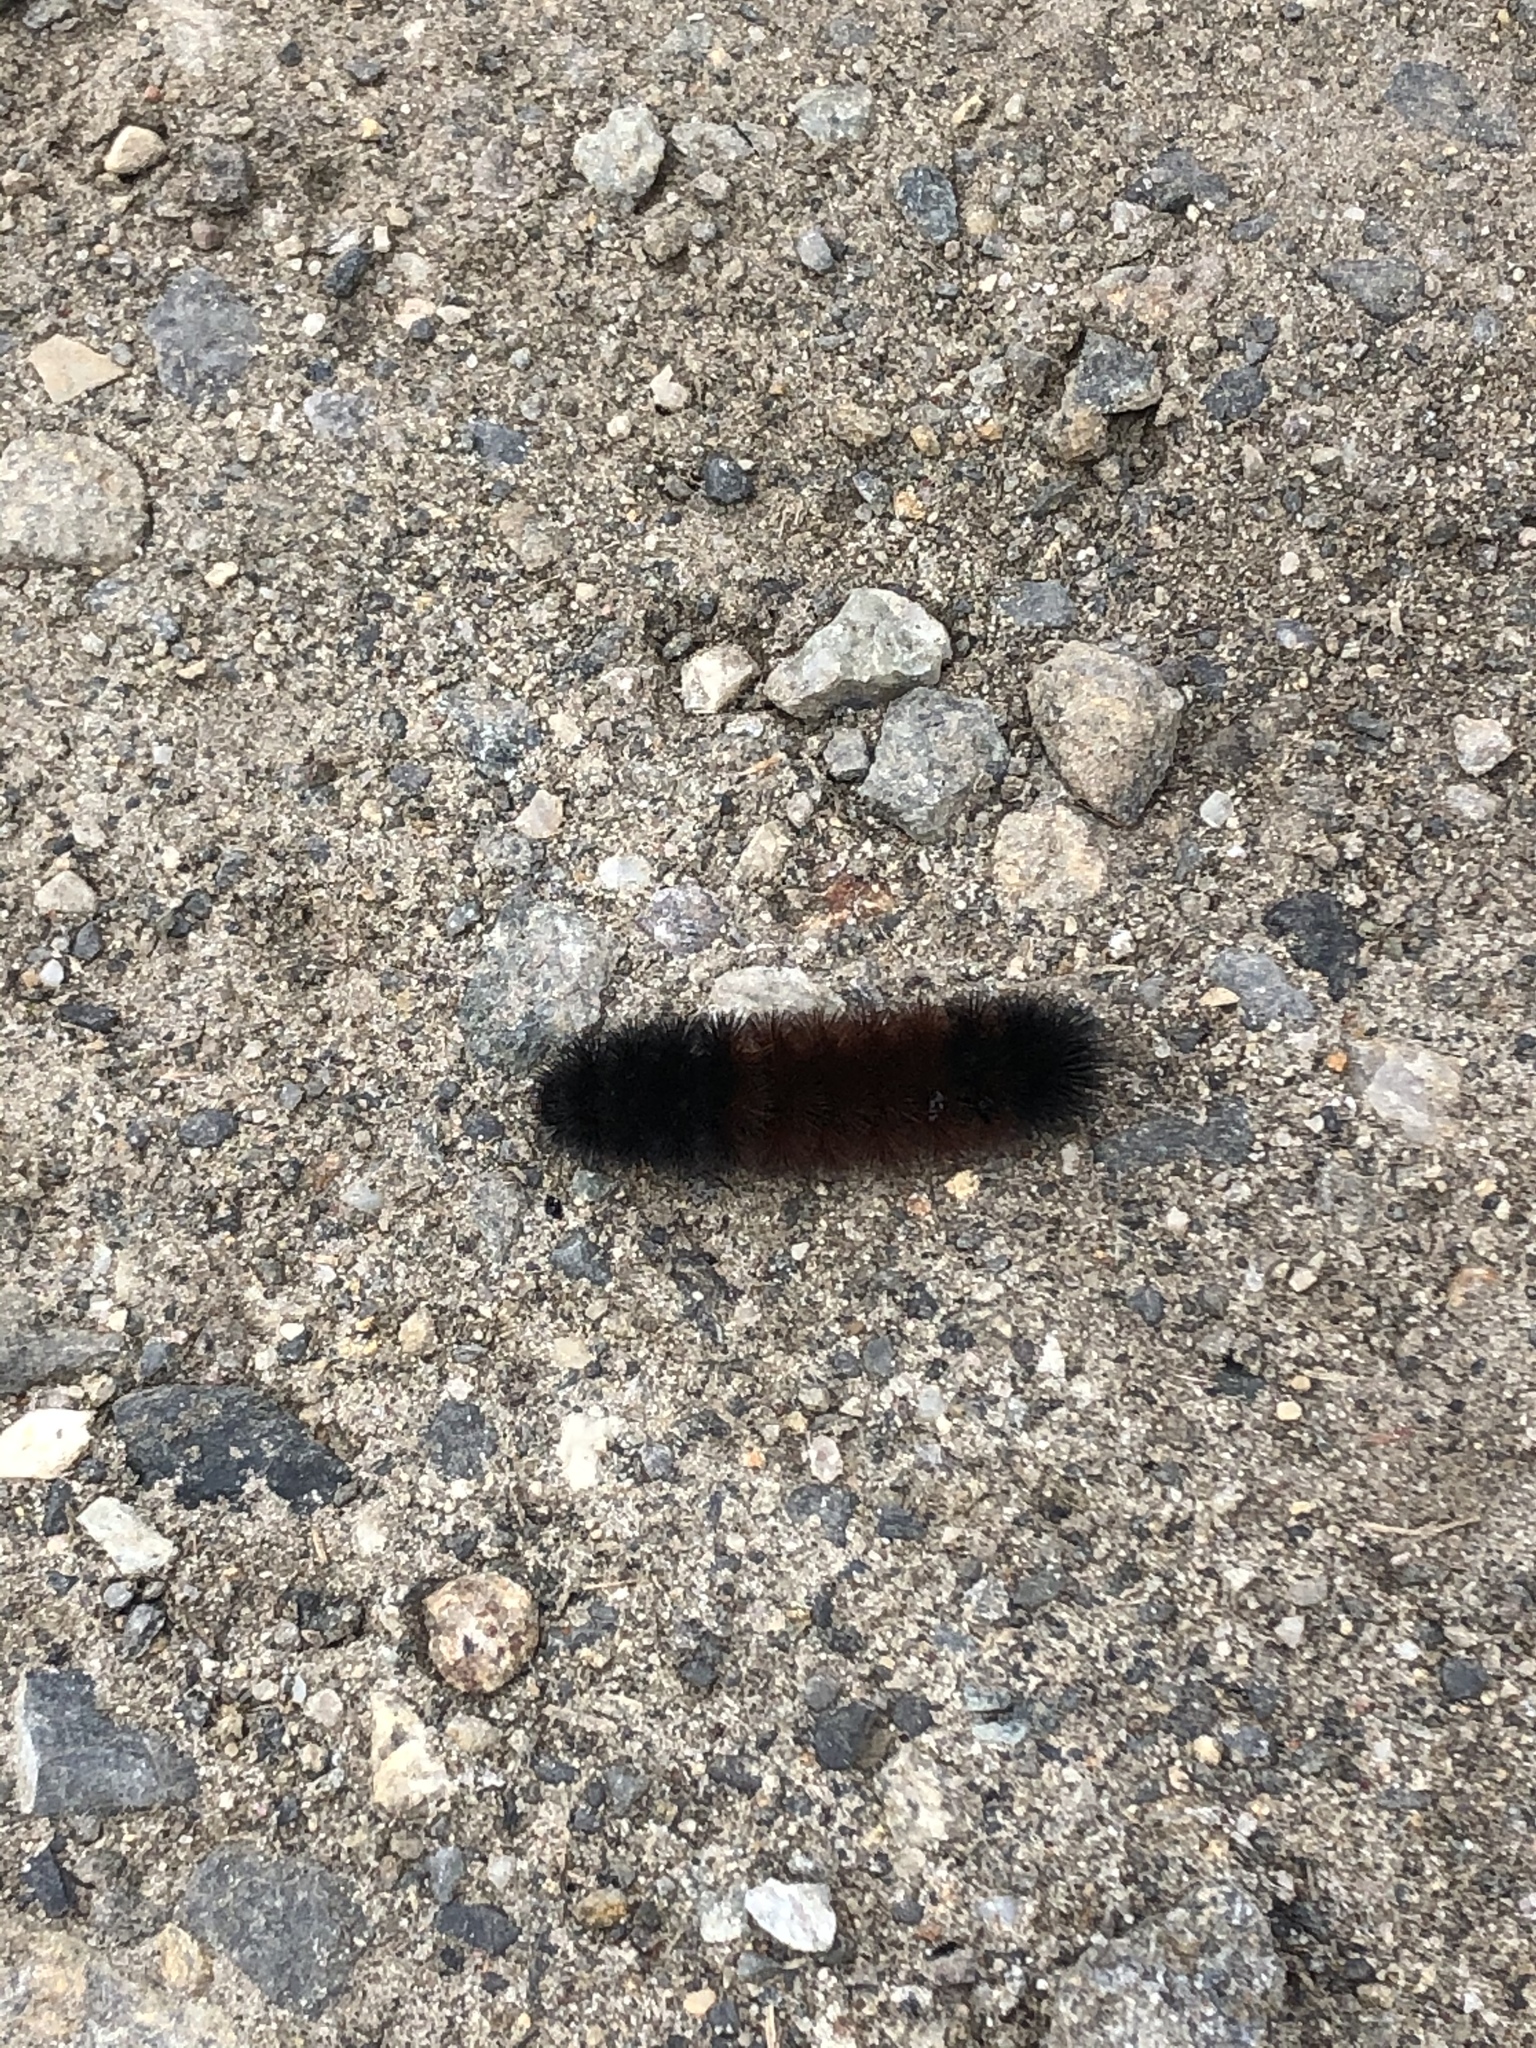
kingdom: Animalia
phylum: Arthropoda
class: Insecta
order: Lepidoptera
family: Erebidae
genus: Pyrrharctia
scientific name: Pyrrharctia isabella
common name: Isabella tiger moth
